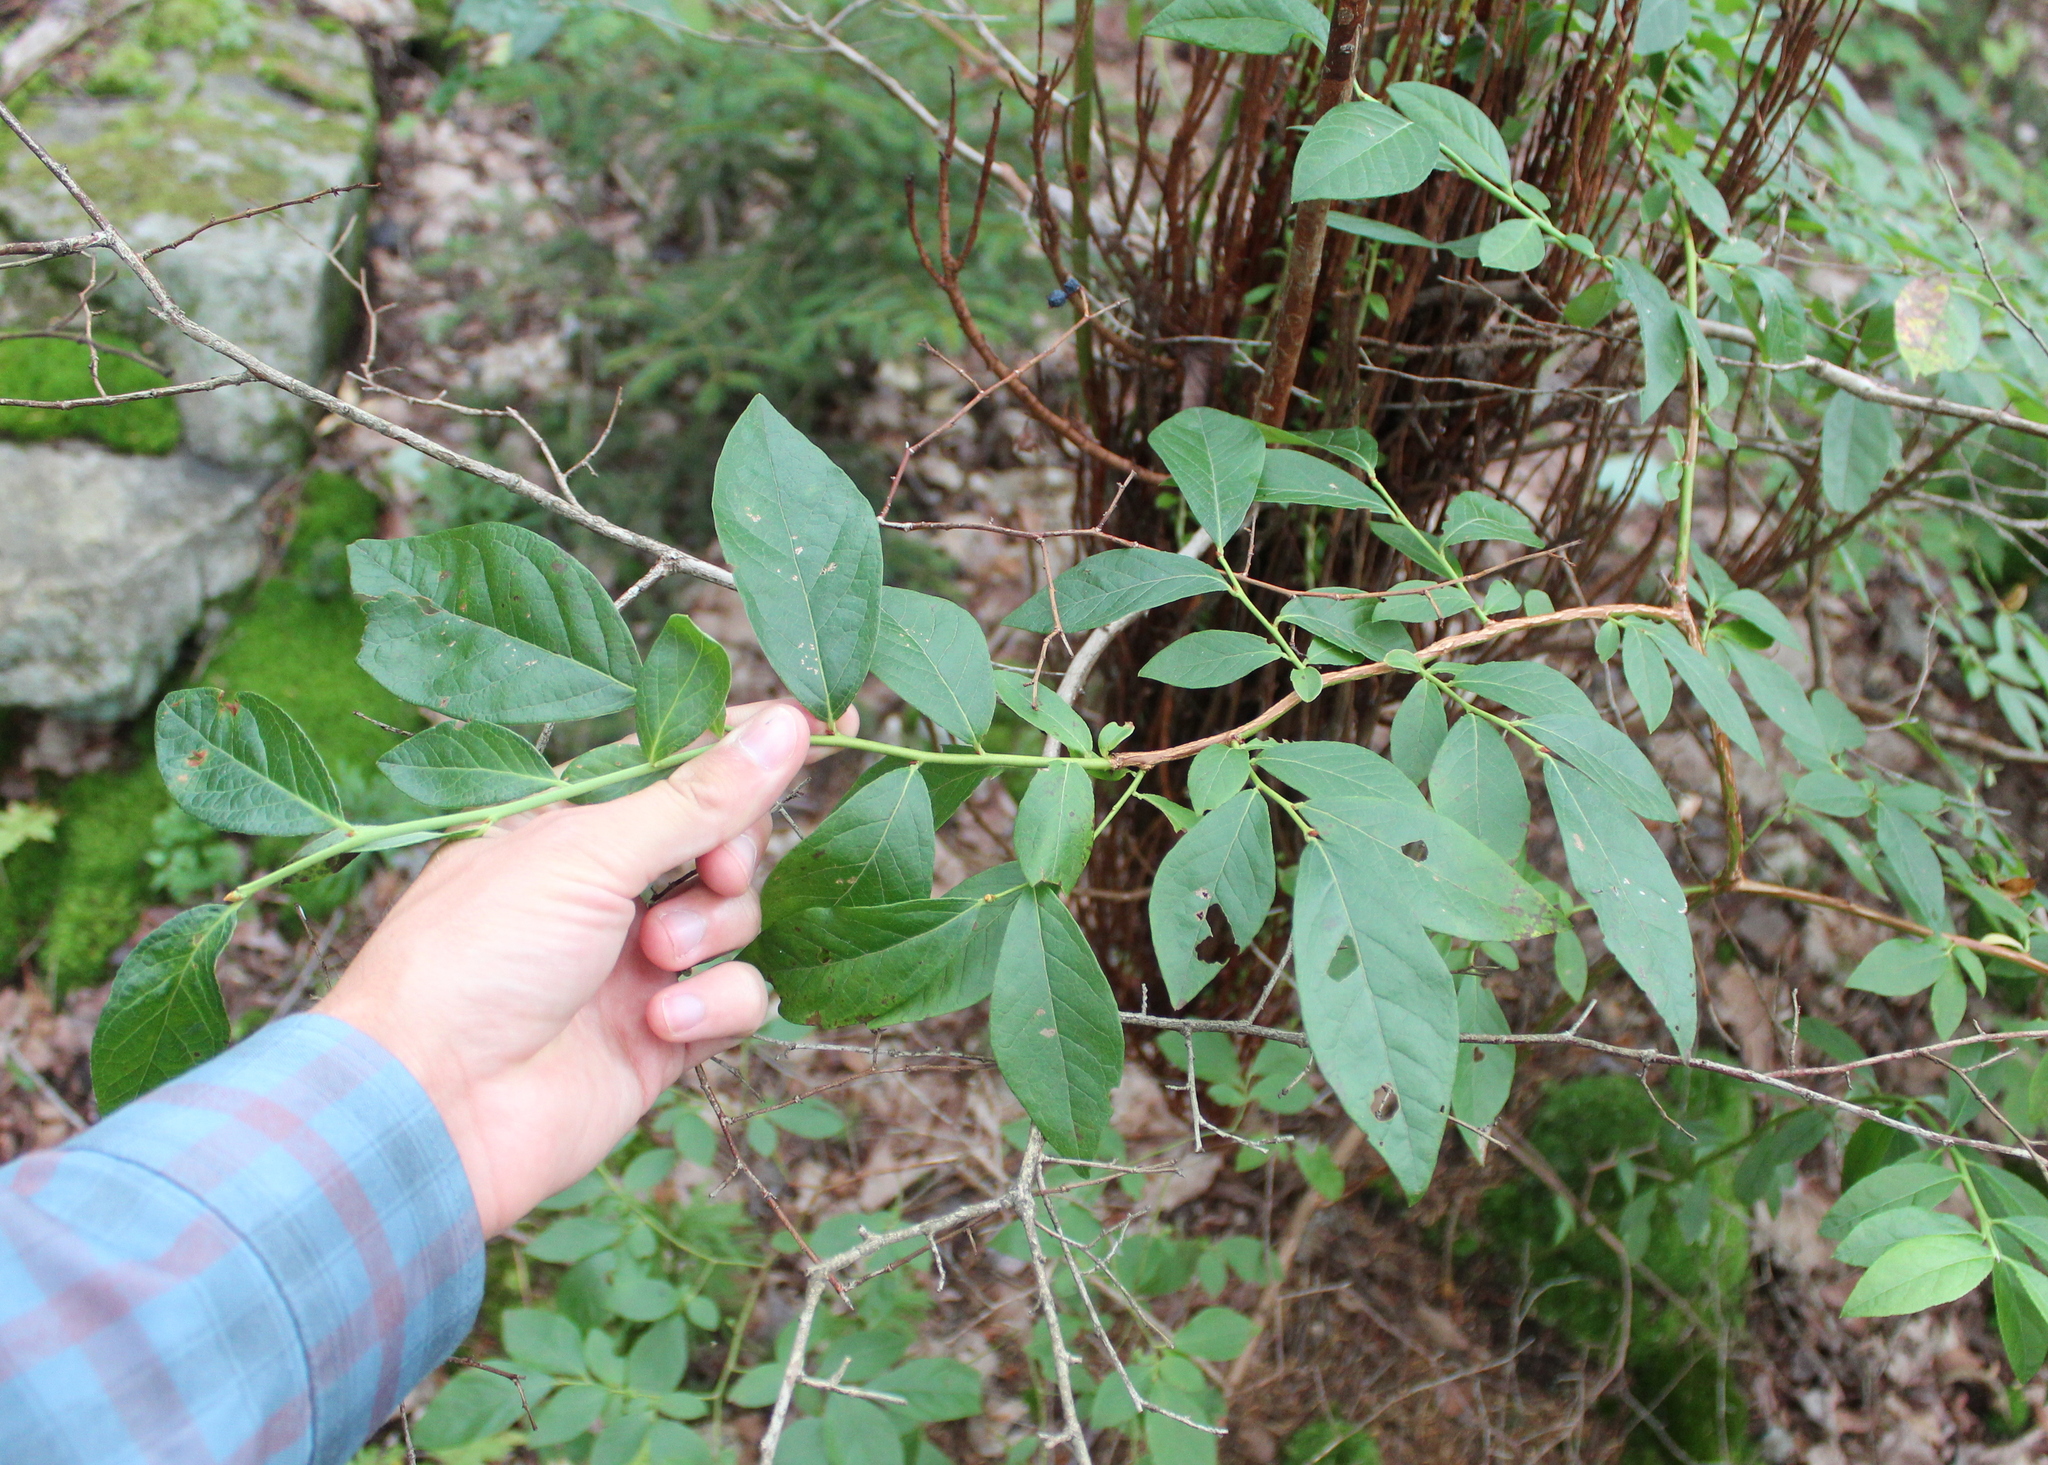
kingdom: Plantae
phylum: Tracheophyta
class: Magnoliopsida
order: Ericales
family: Ericaceae
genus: Vaccinium
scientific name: Vaccinium corymbosum
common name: Blueberry
